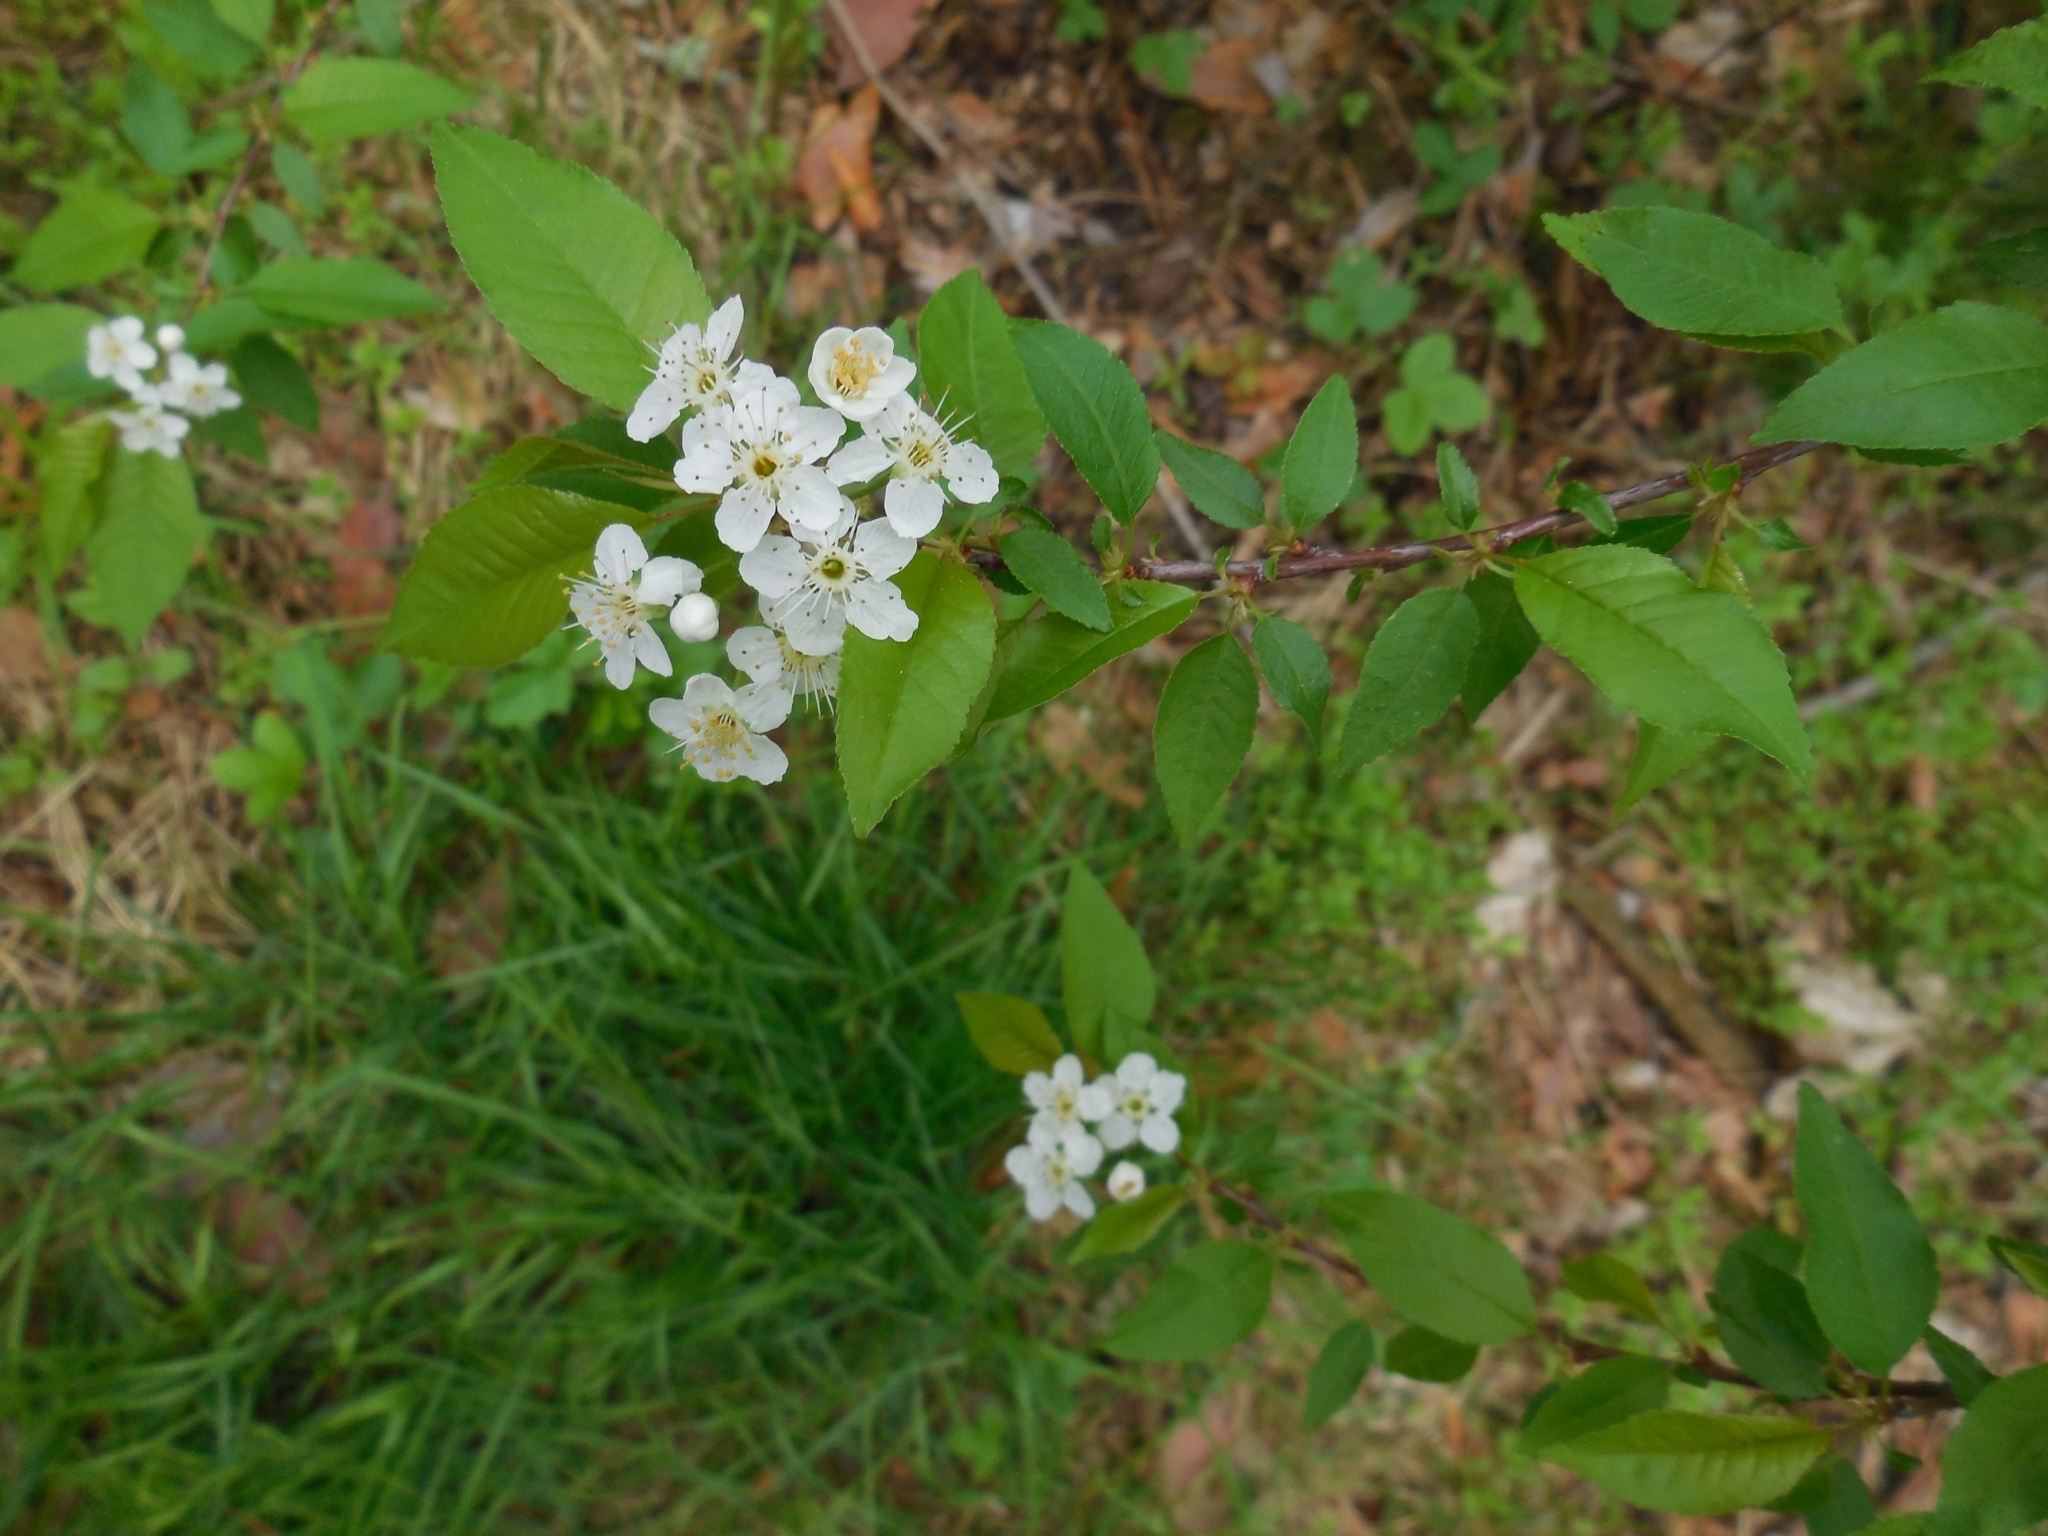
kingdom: Plantae
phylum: Tracheophyta
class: Magnoliopsida
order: Rosales
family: Rosaceae
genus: Prunus
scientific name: Prunus pensylvanica
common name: Pin cherry
